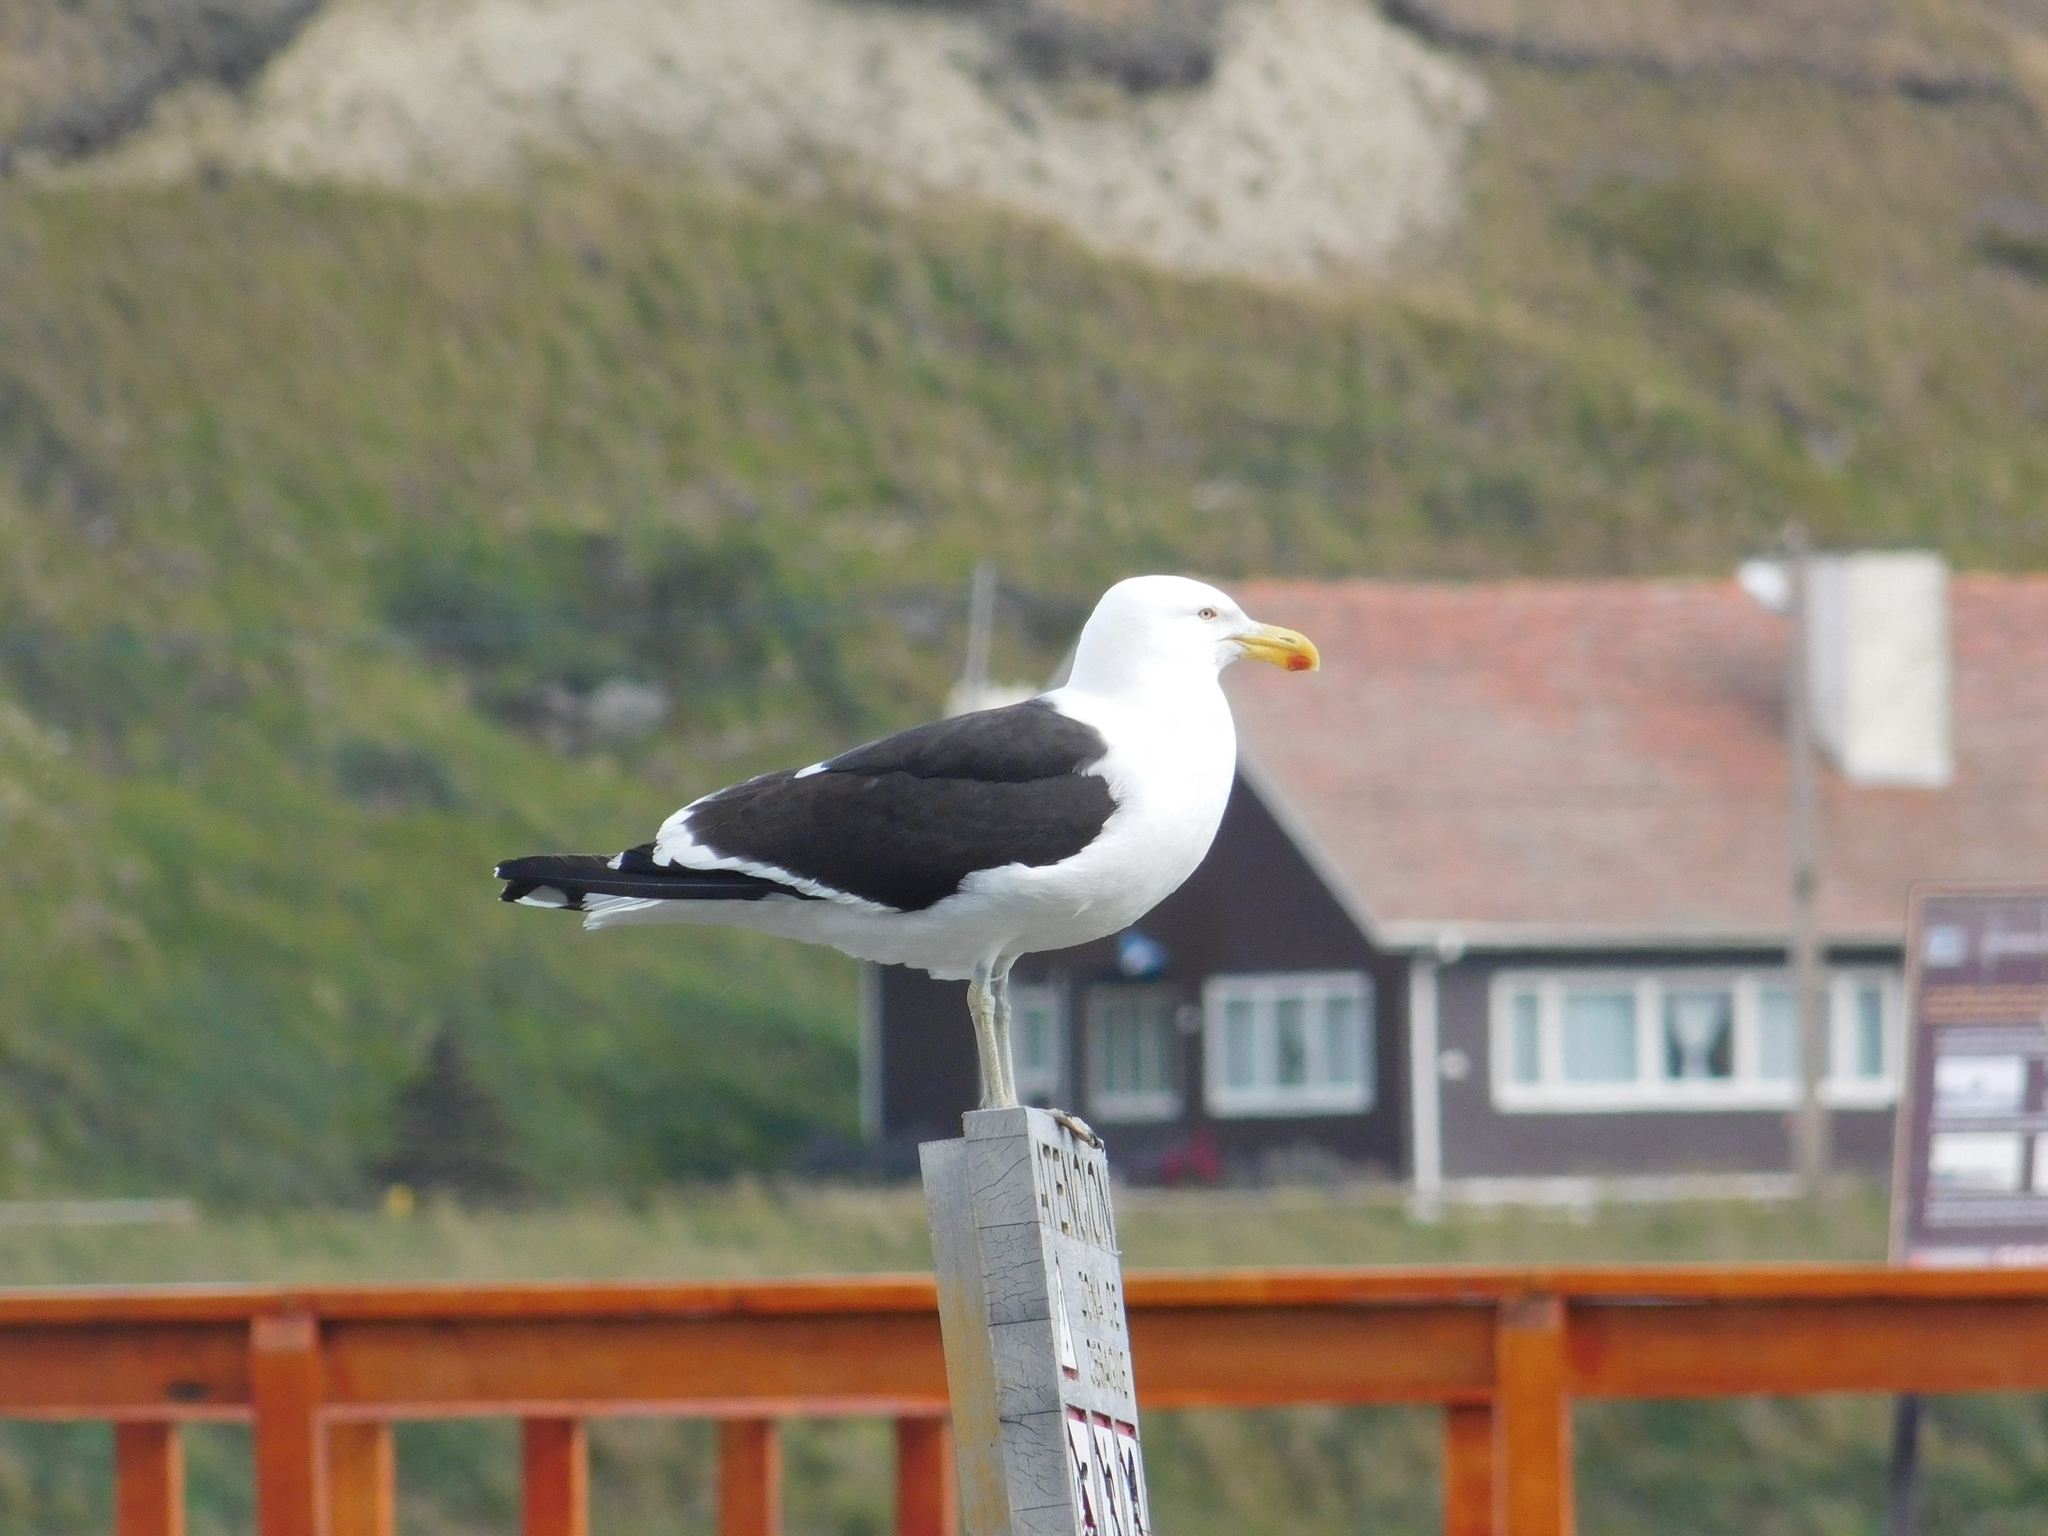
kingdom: Animalia
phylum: Chordata
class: Aves
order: Charadriiformes
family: Laridae
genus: Larus
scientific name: Larus dominicanus
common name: Kelp gull
